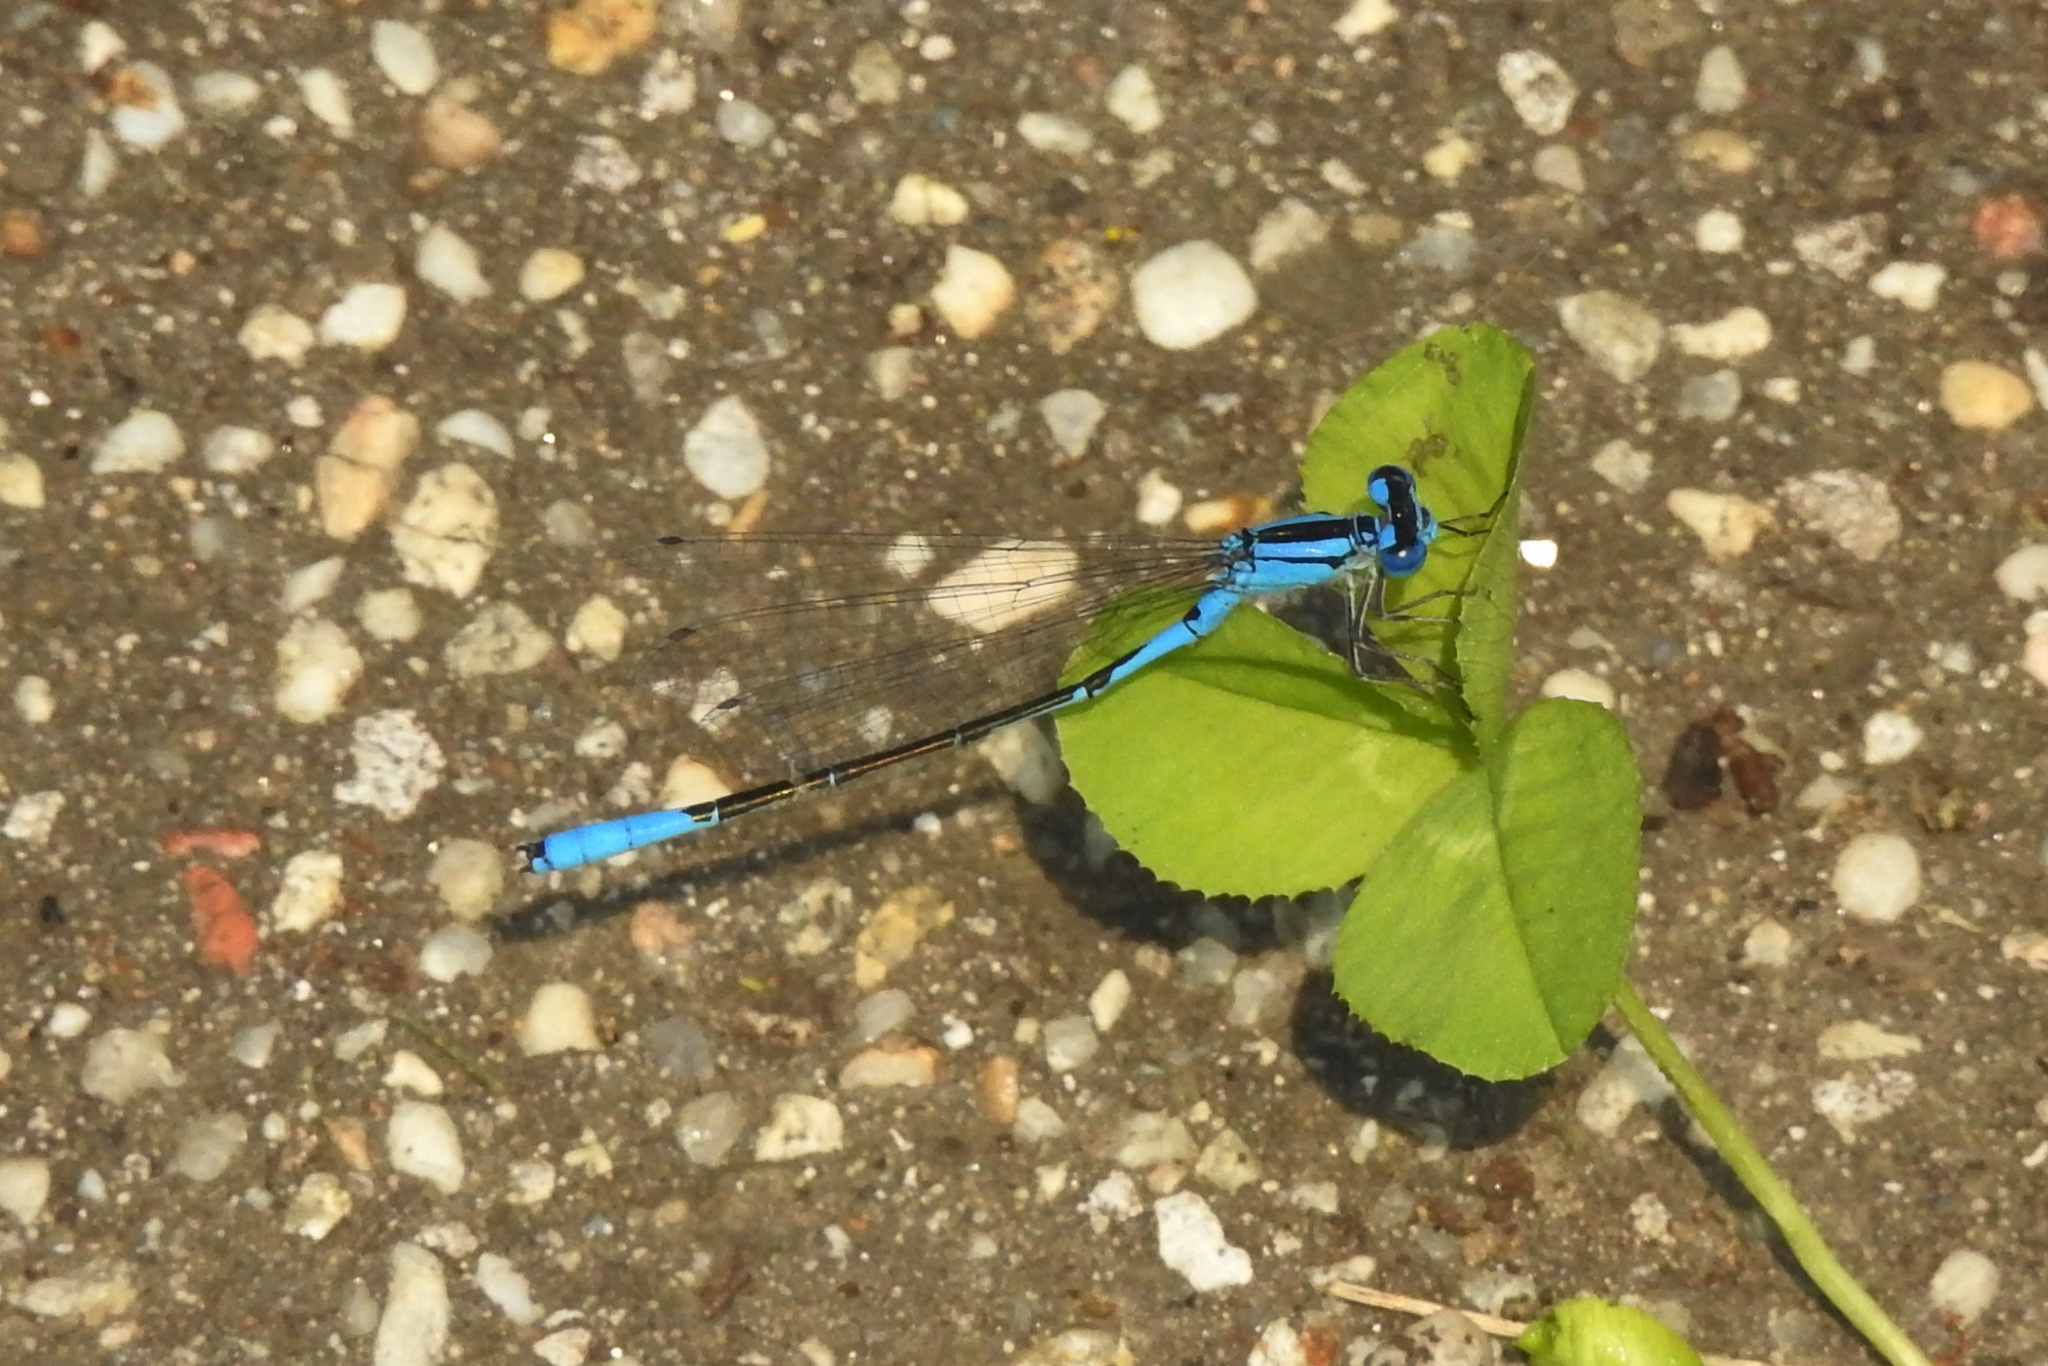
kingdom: Animalia
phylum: Arthropoda
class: Insecta
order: Odonata
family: Coenagrionidae
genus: Enallagma
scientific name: Enallagma aspersum
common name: Azure bluet
